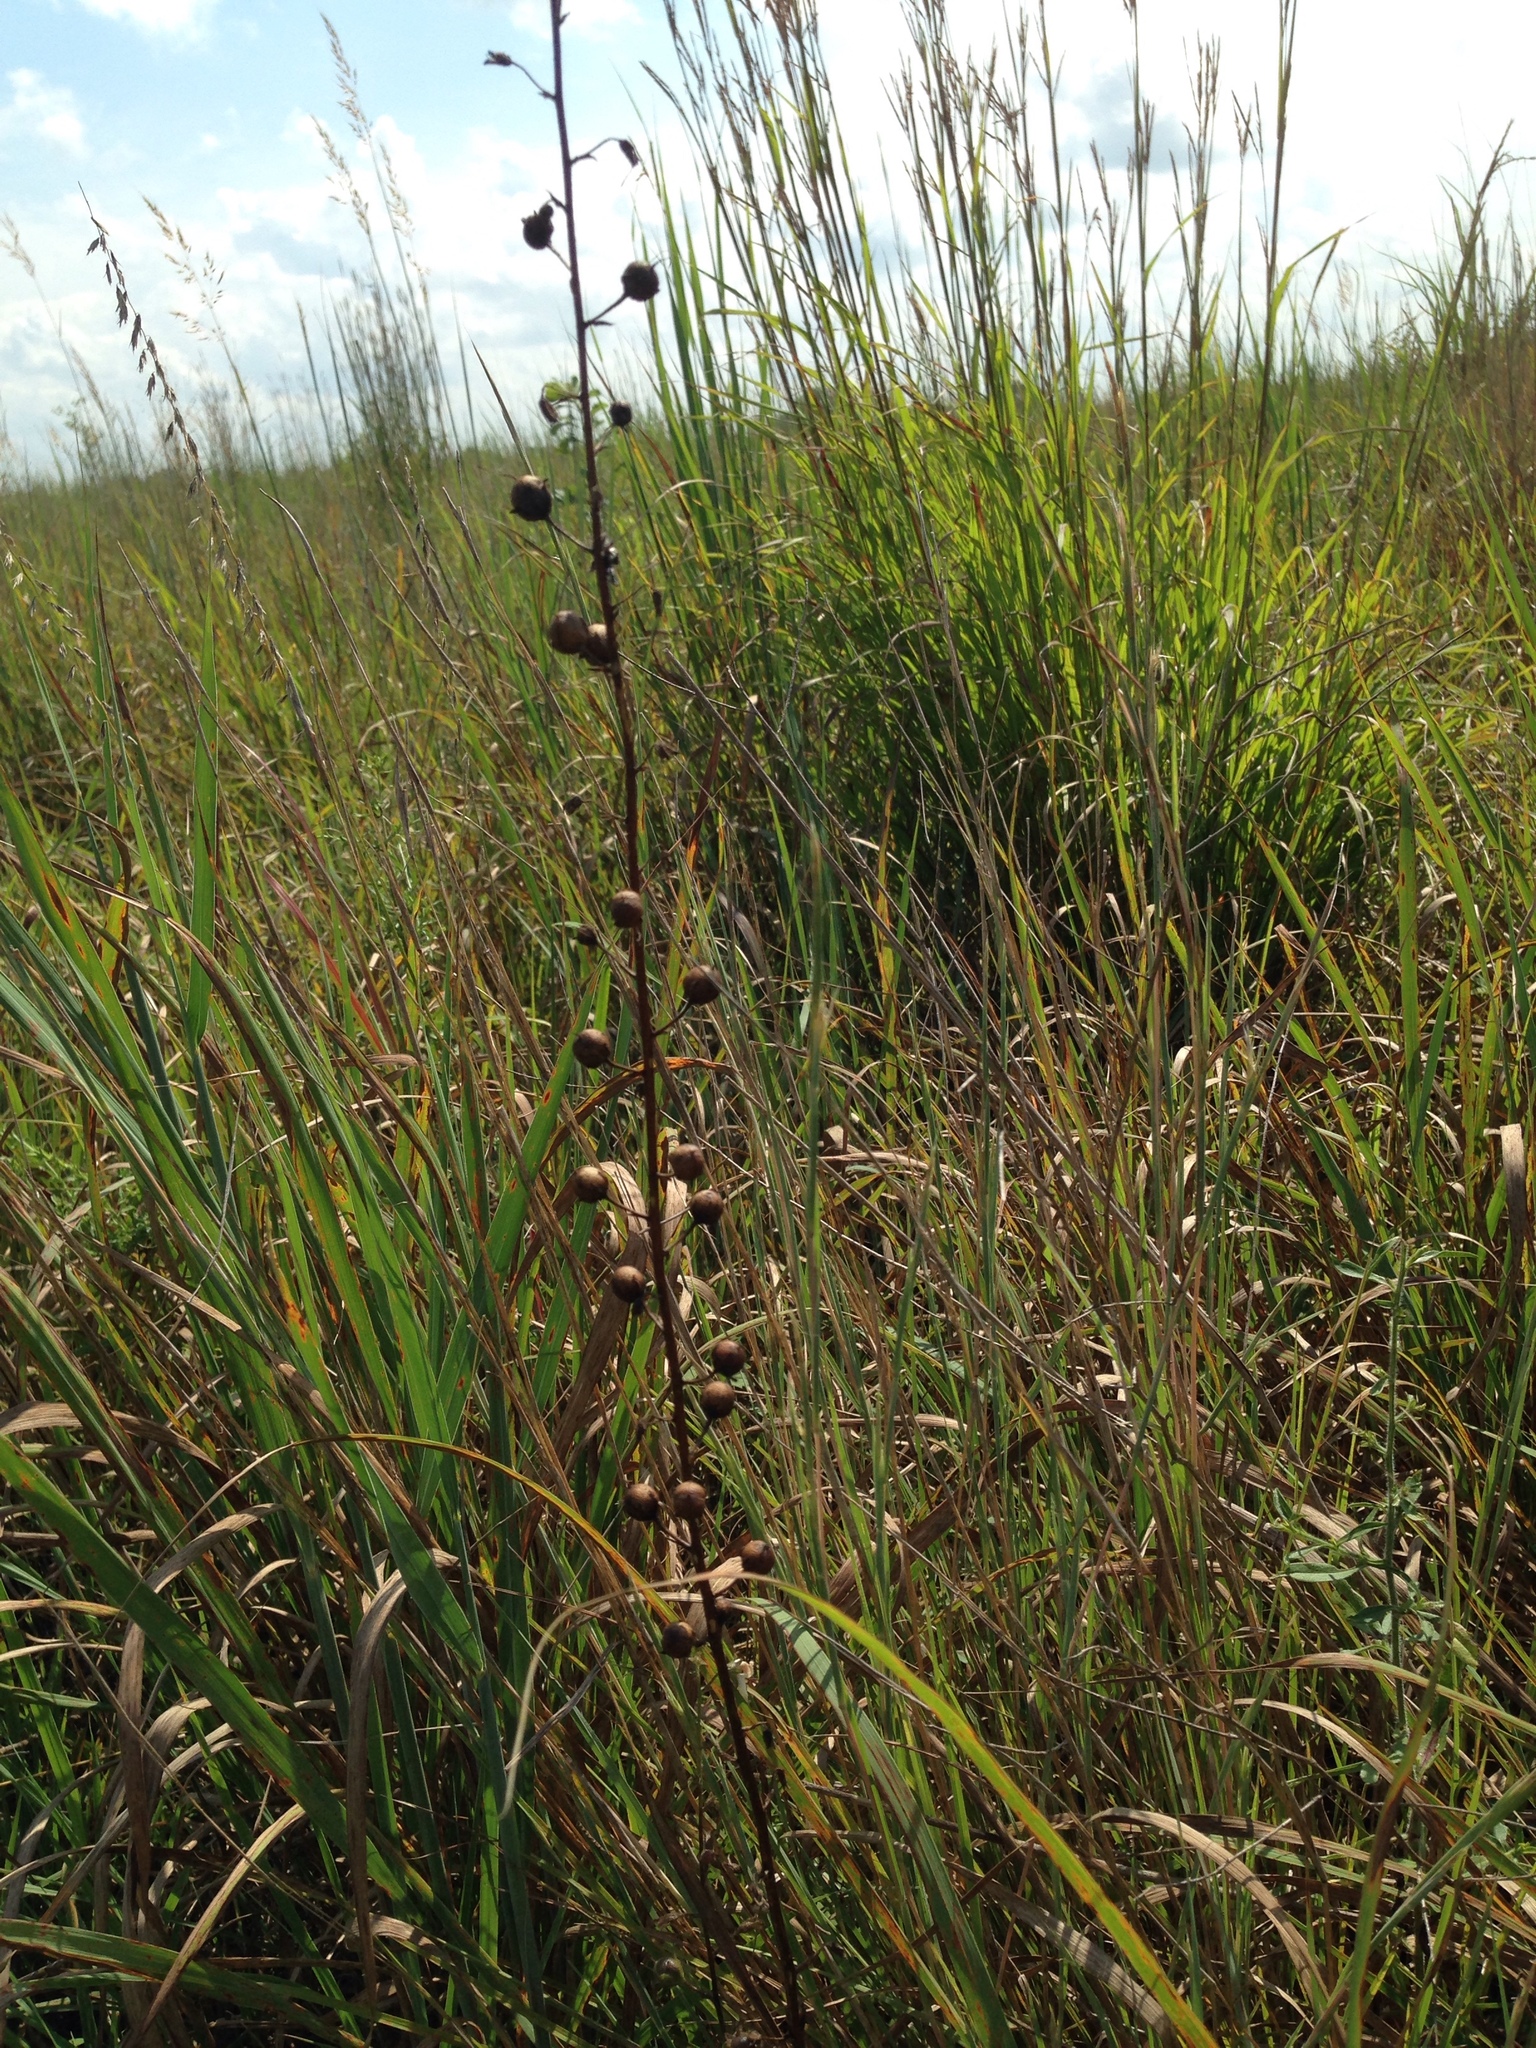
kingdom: Plantae
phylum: Tracheophyta
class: Magnoliopsida
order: Lamiales
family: Scrophulariaceae
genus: Verbascum
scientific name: Verbascum blattaria
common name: Moth mullein
